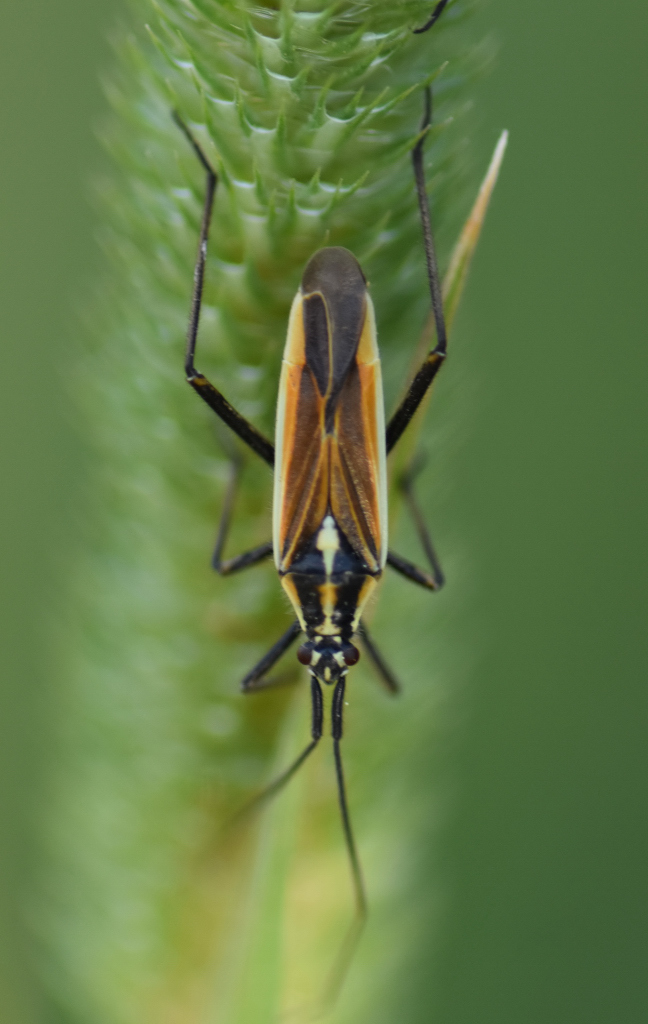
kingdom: Animalia
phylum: Arthropoda
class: Insecta
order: Hemiptera
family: Miridae
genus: Leptopterna
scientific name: Leptopterna dolabrata
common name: Meadow plant bug
